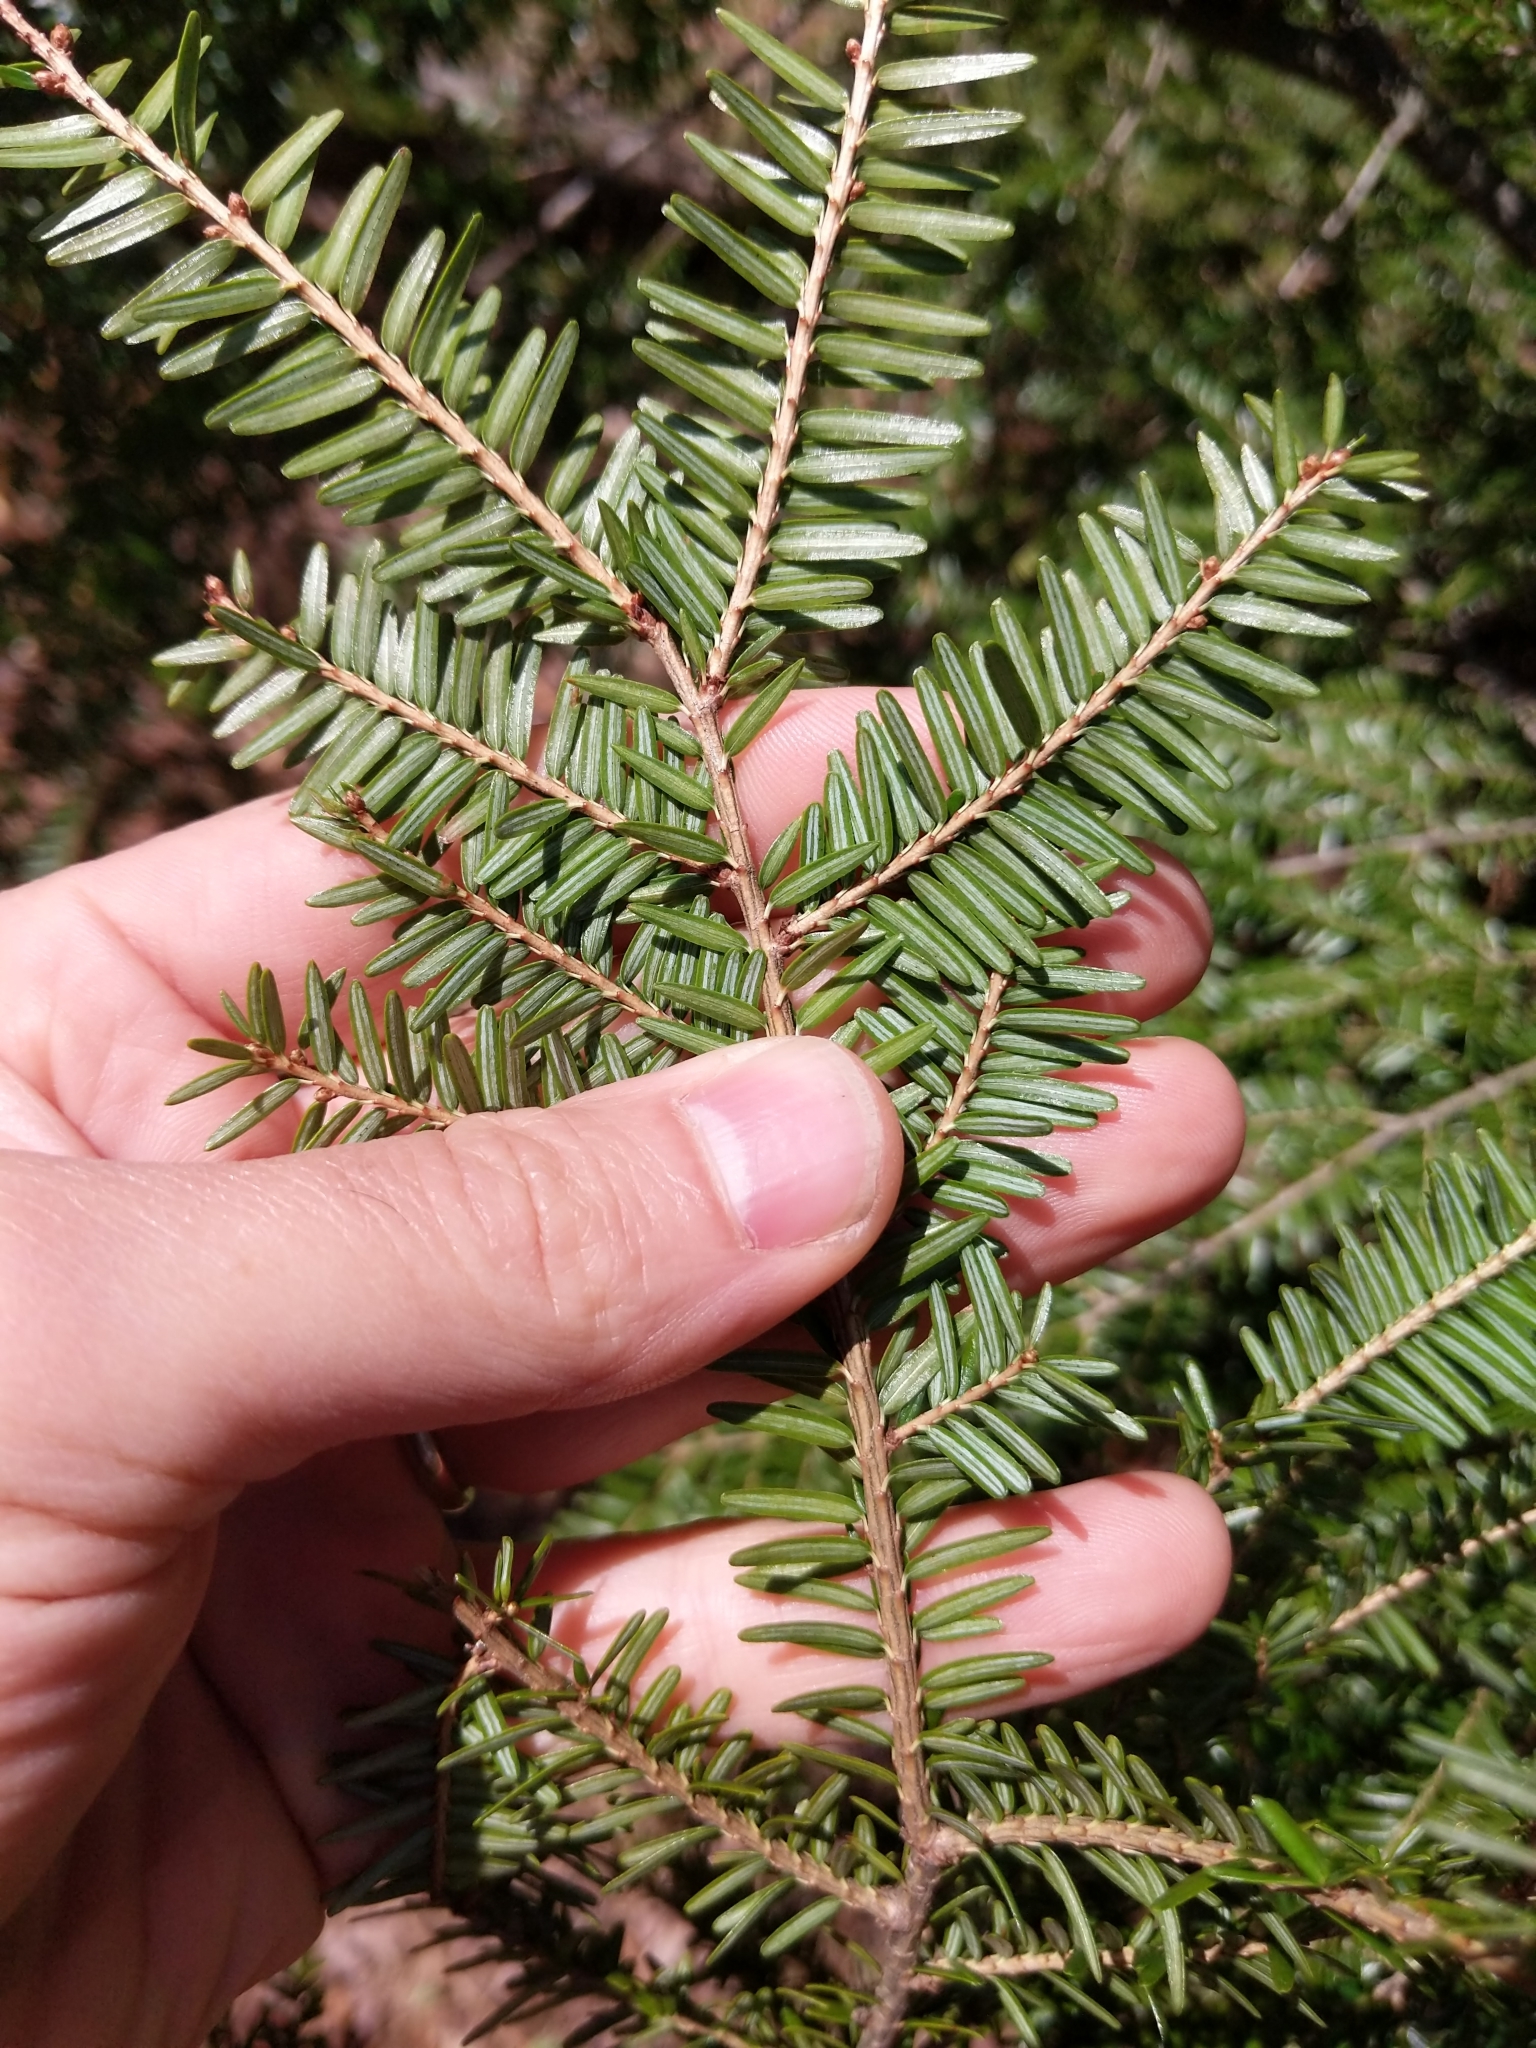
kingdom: Plantae
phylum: Tracheophyta
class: Pinopsida
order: Pinales
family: Pinaceae
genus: Tsuga
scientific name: Tsuga canadensis
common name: Eastern hemlock
